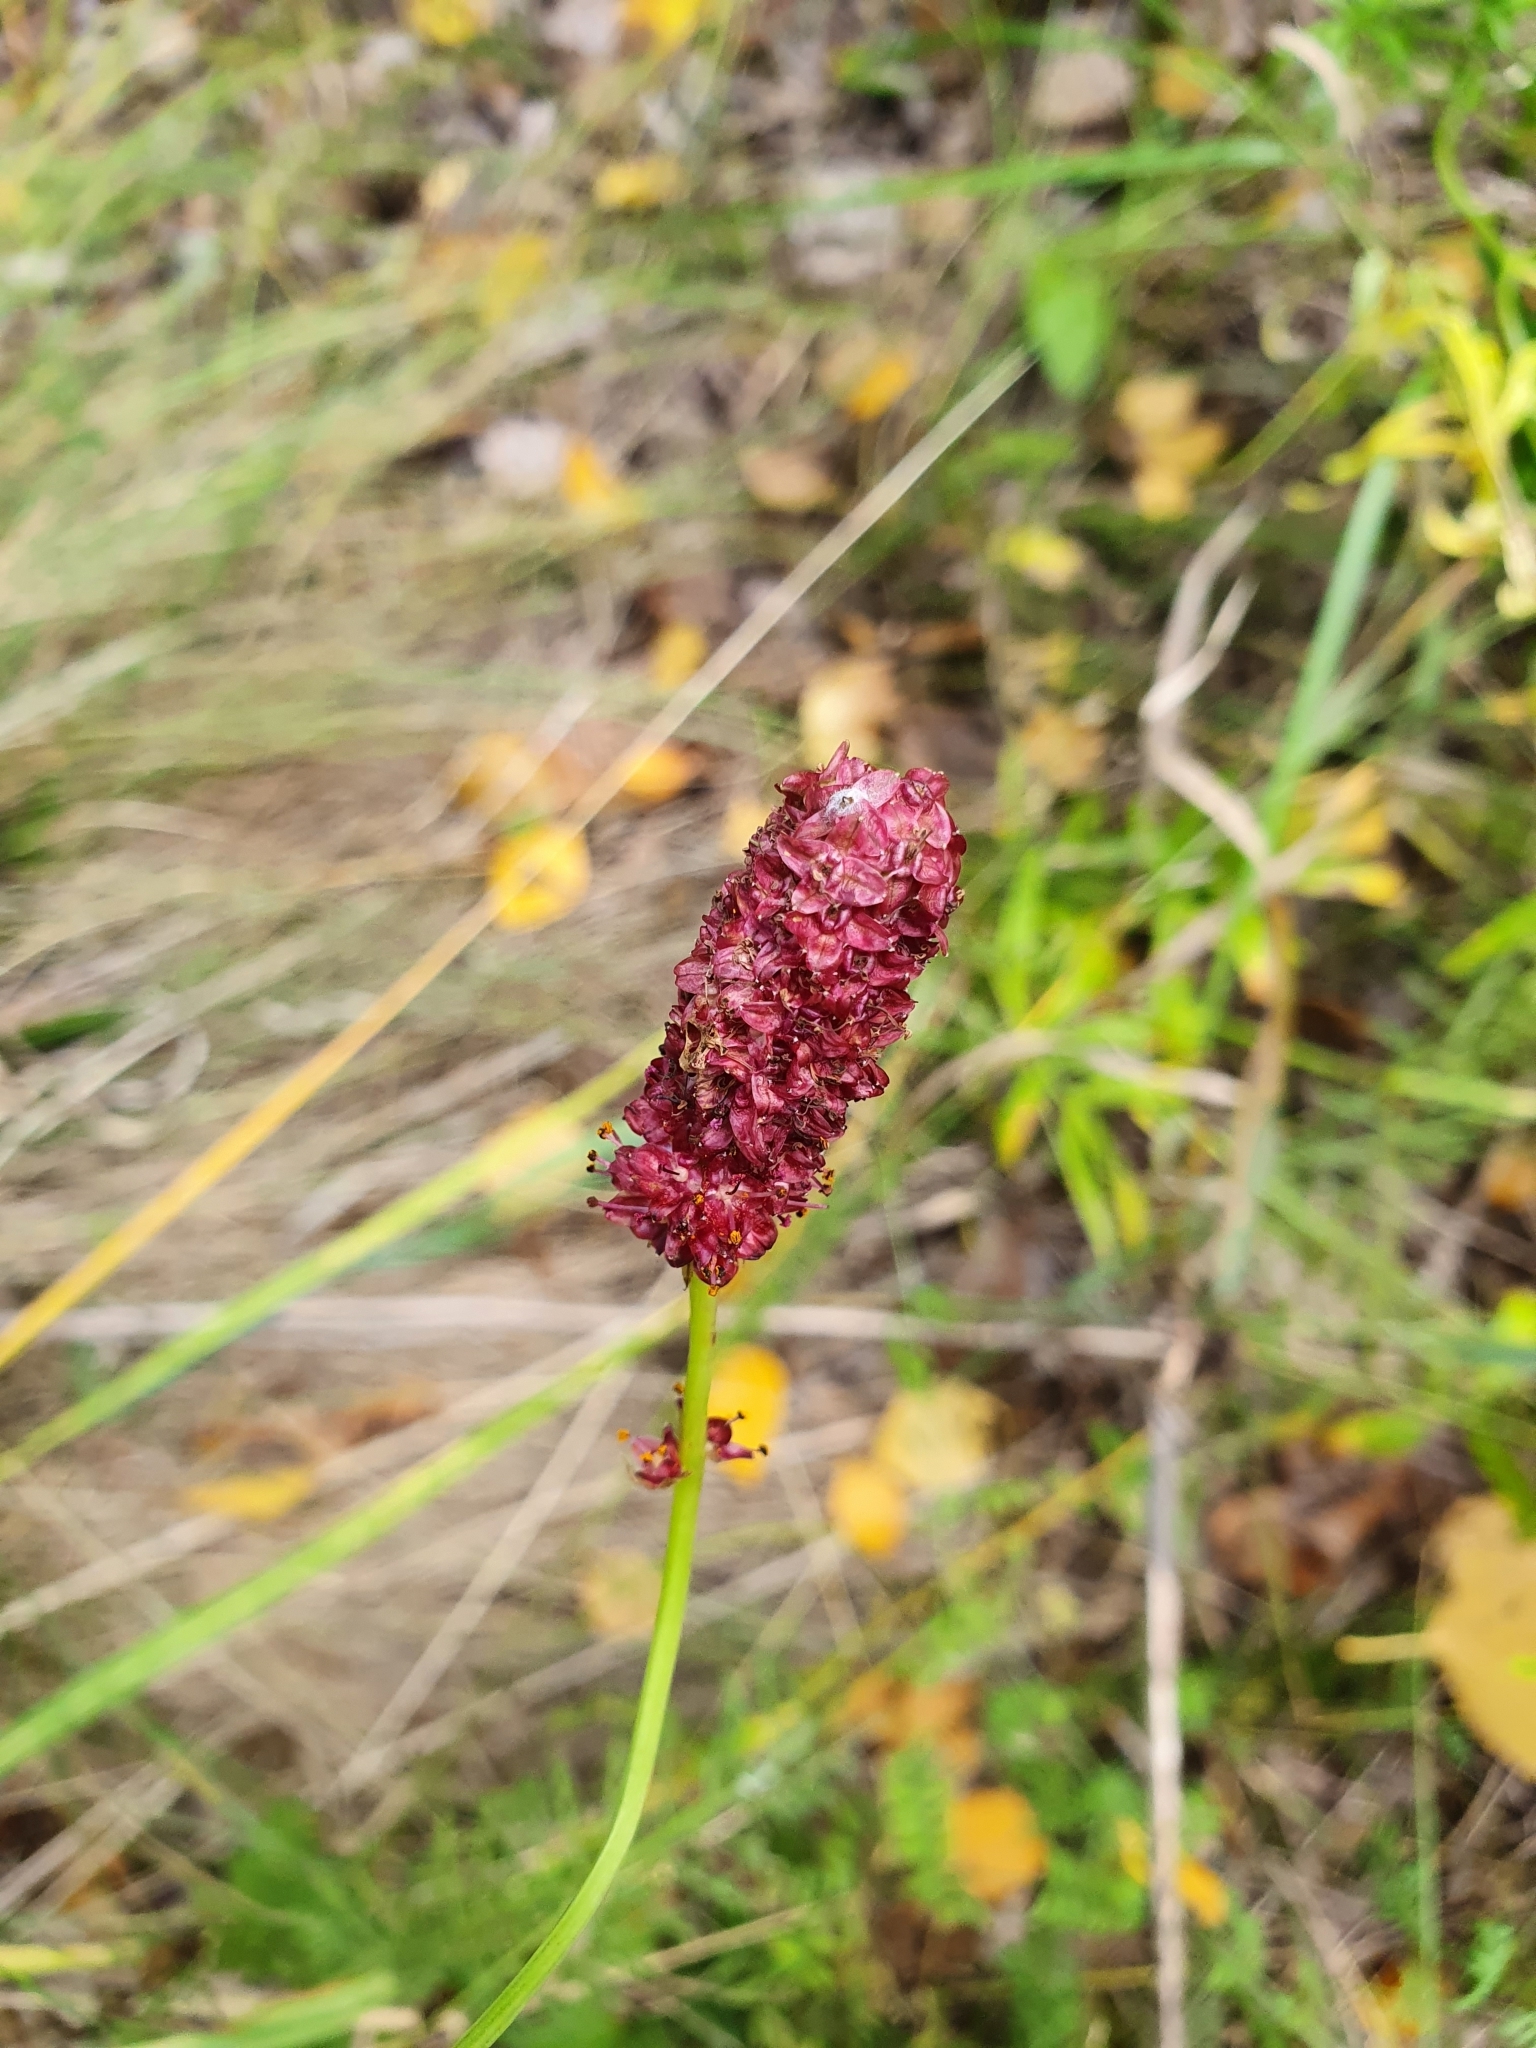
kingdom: Plantae
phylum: Tracheophyta
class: Magnoliopsida
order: Rosales
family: Rosaceae
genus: Sanguisorba
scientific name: Sanguisorba officinalis
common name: Great burnet
